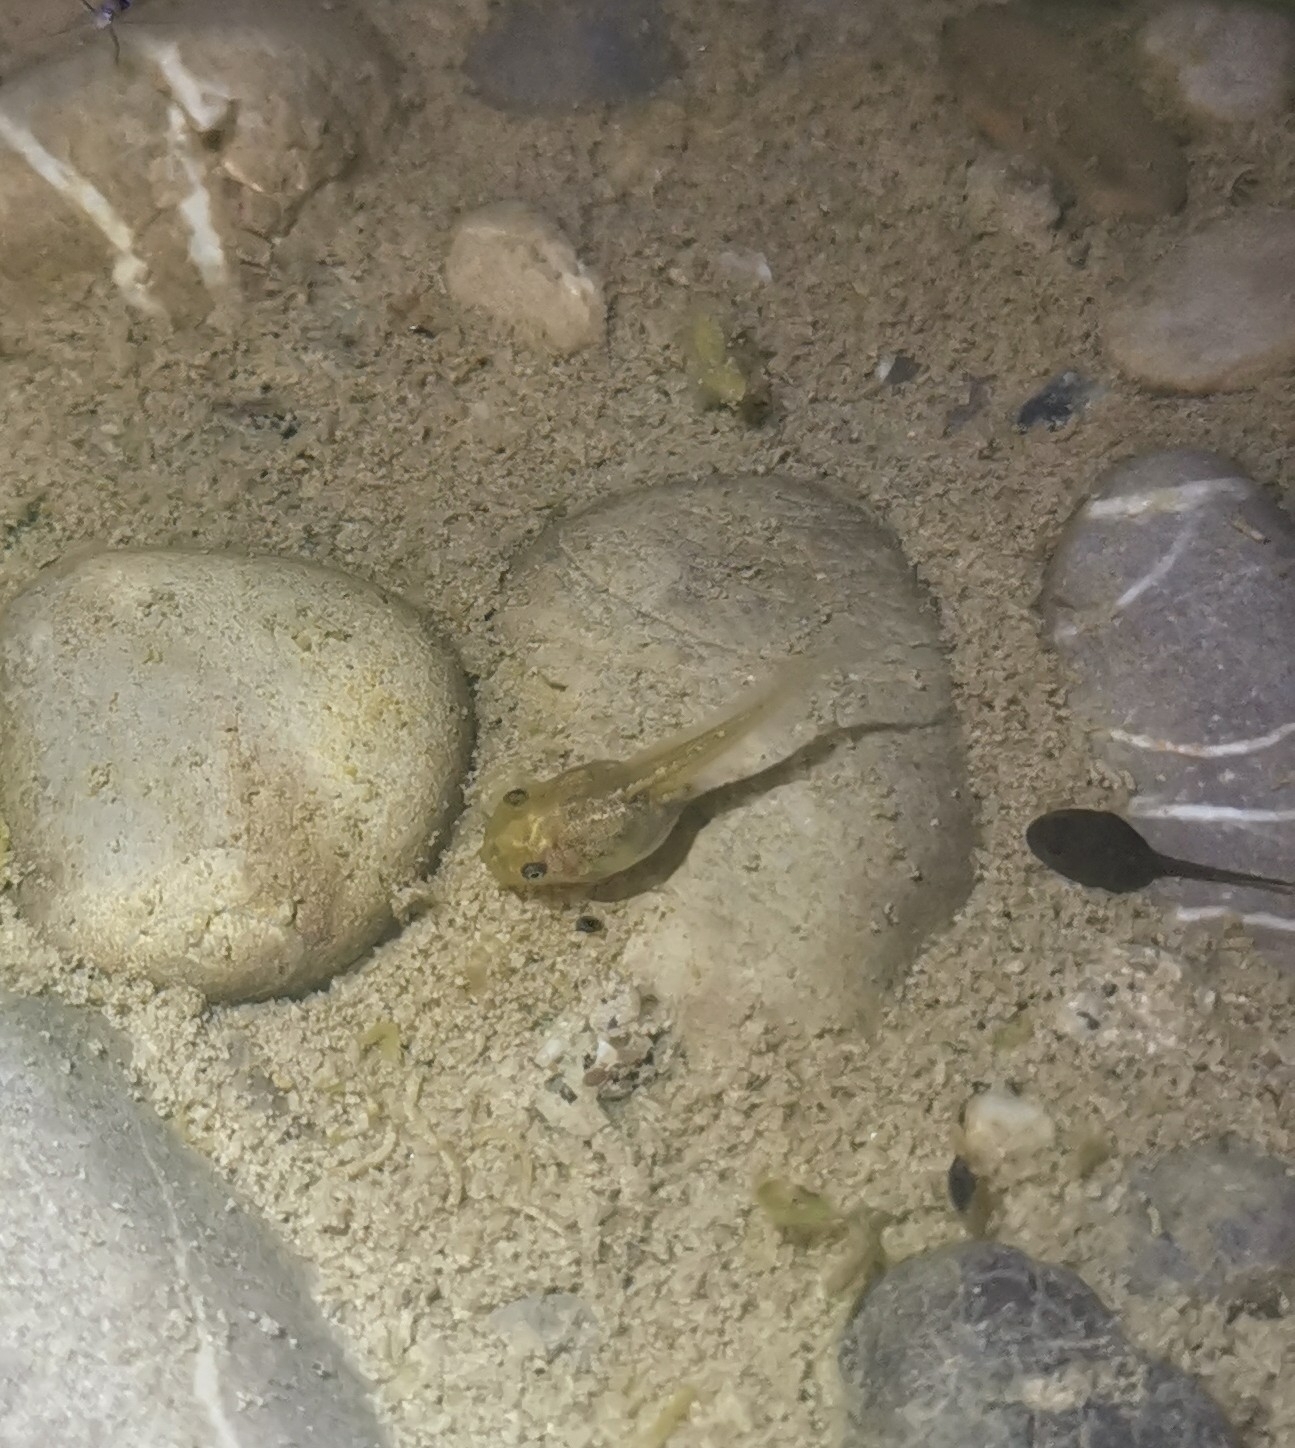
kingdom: Animalia
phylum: Chordata
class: Amphibia
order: Anura
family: Hylidae
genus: Hyla
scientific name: Hyla arborea
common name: Common tree frog
